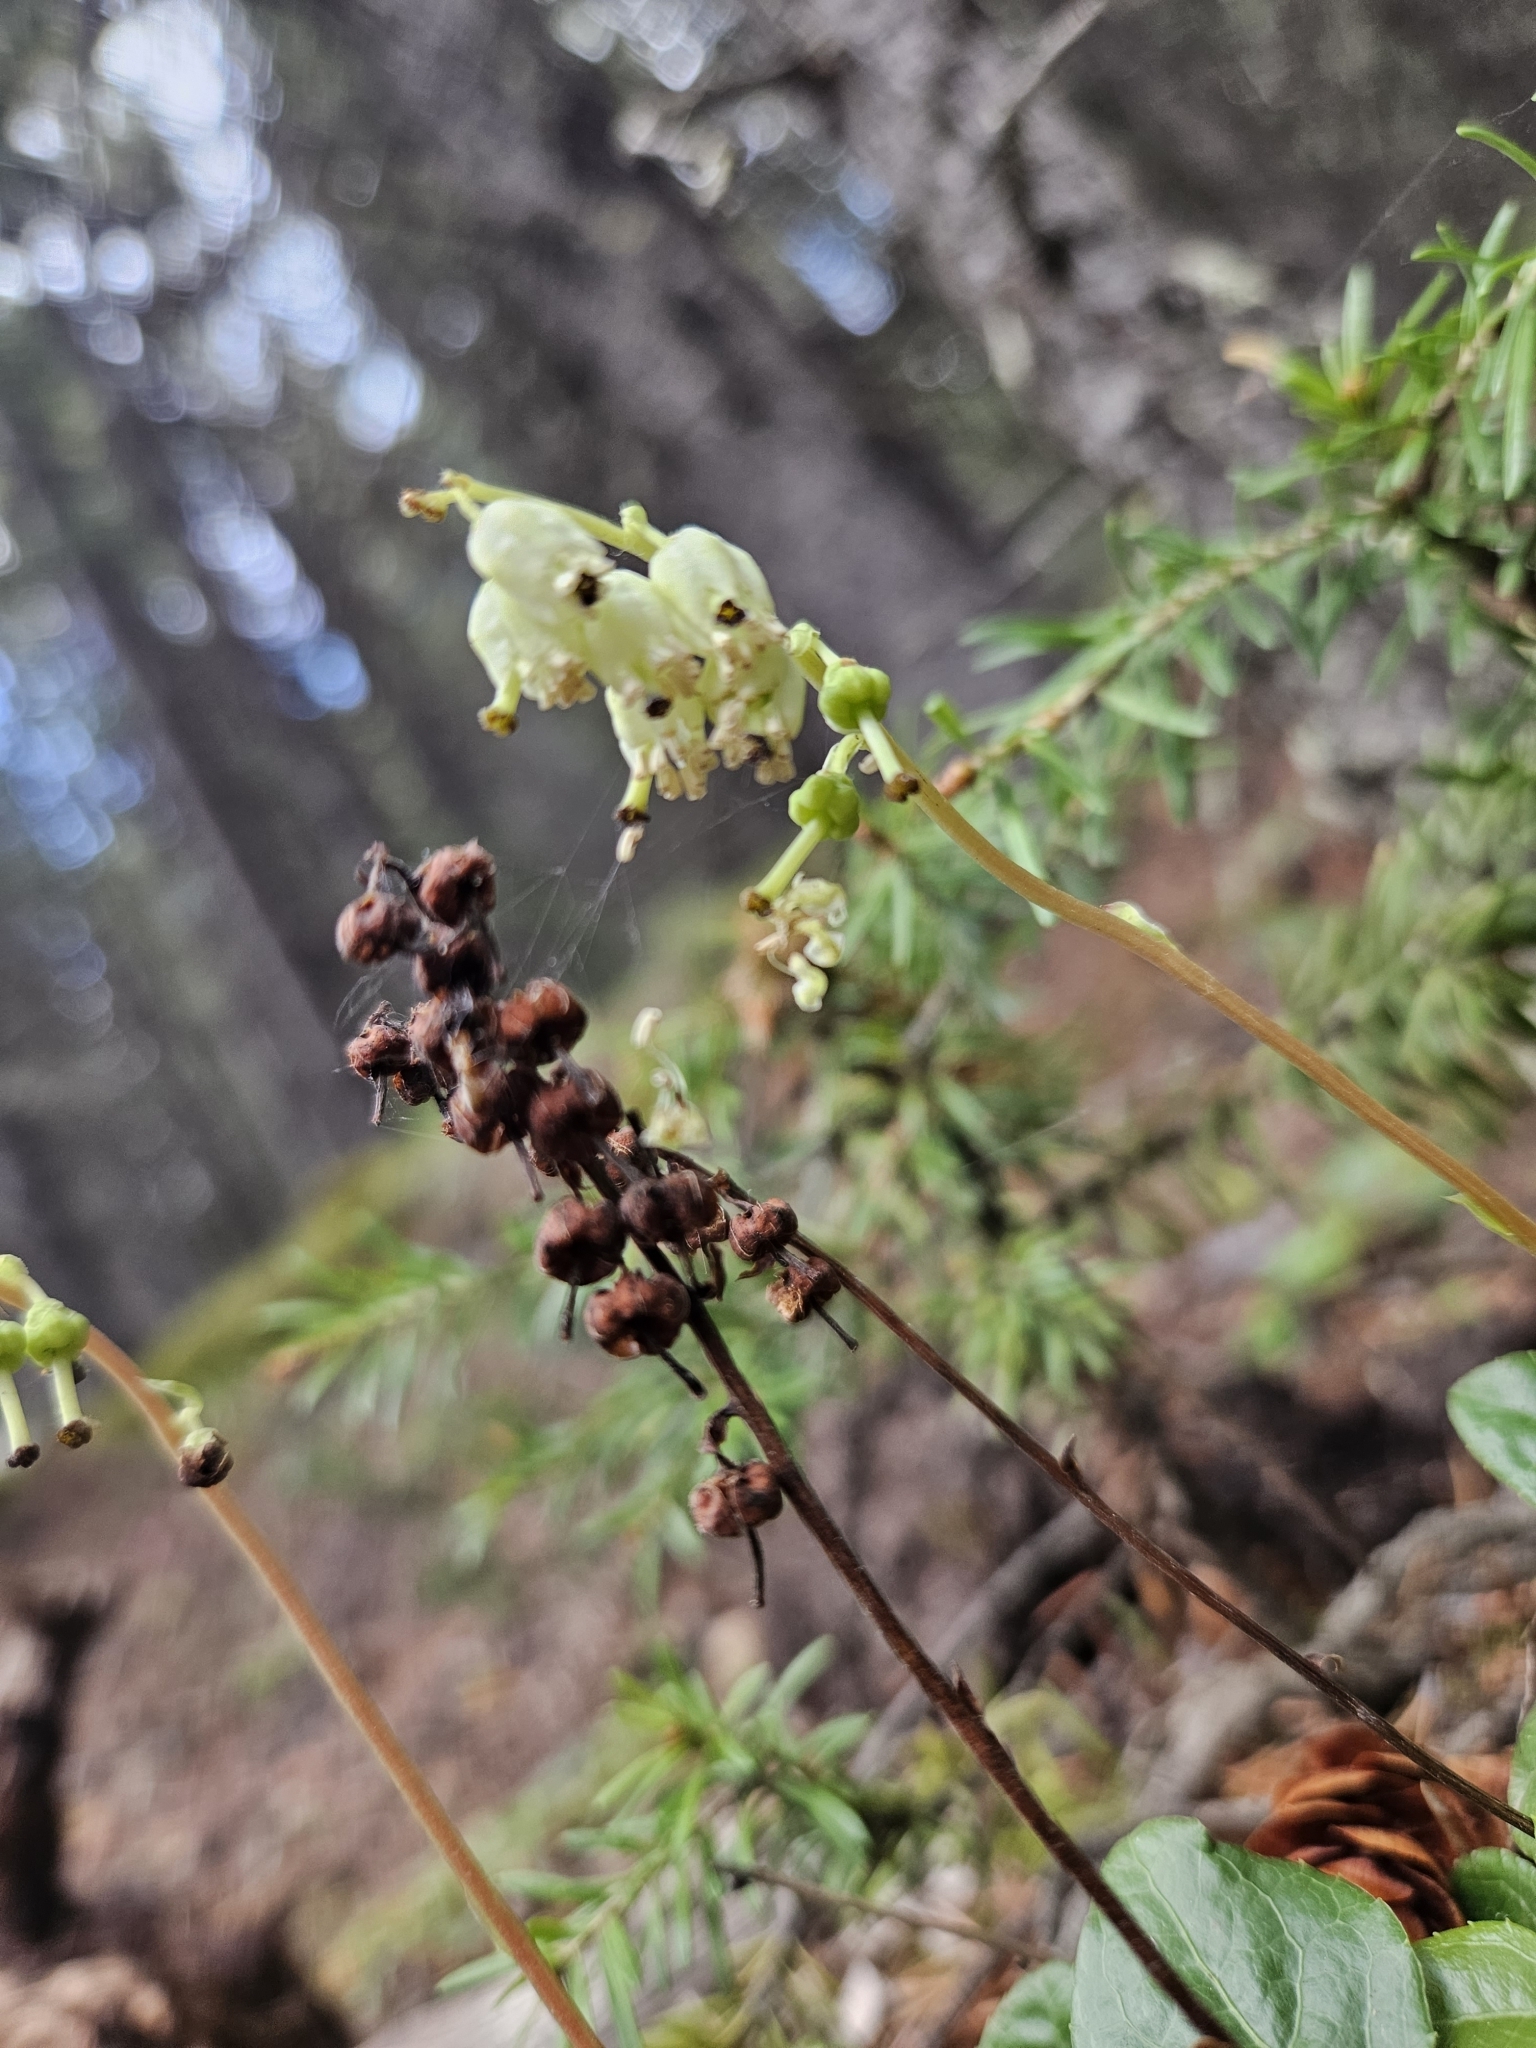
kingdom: Plantae
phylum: Tracheophyta
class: Magnoliopsida
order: Ericales
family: Ericaceae
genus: Orthilia
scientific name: Orthilia secunda
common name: One-sided orthilia
